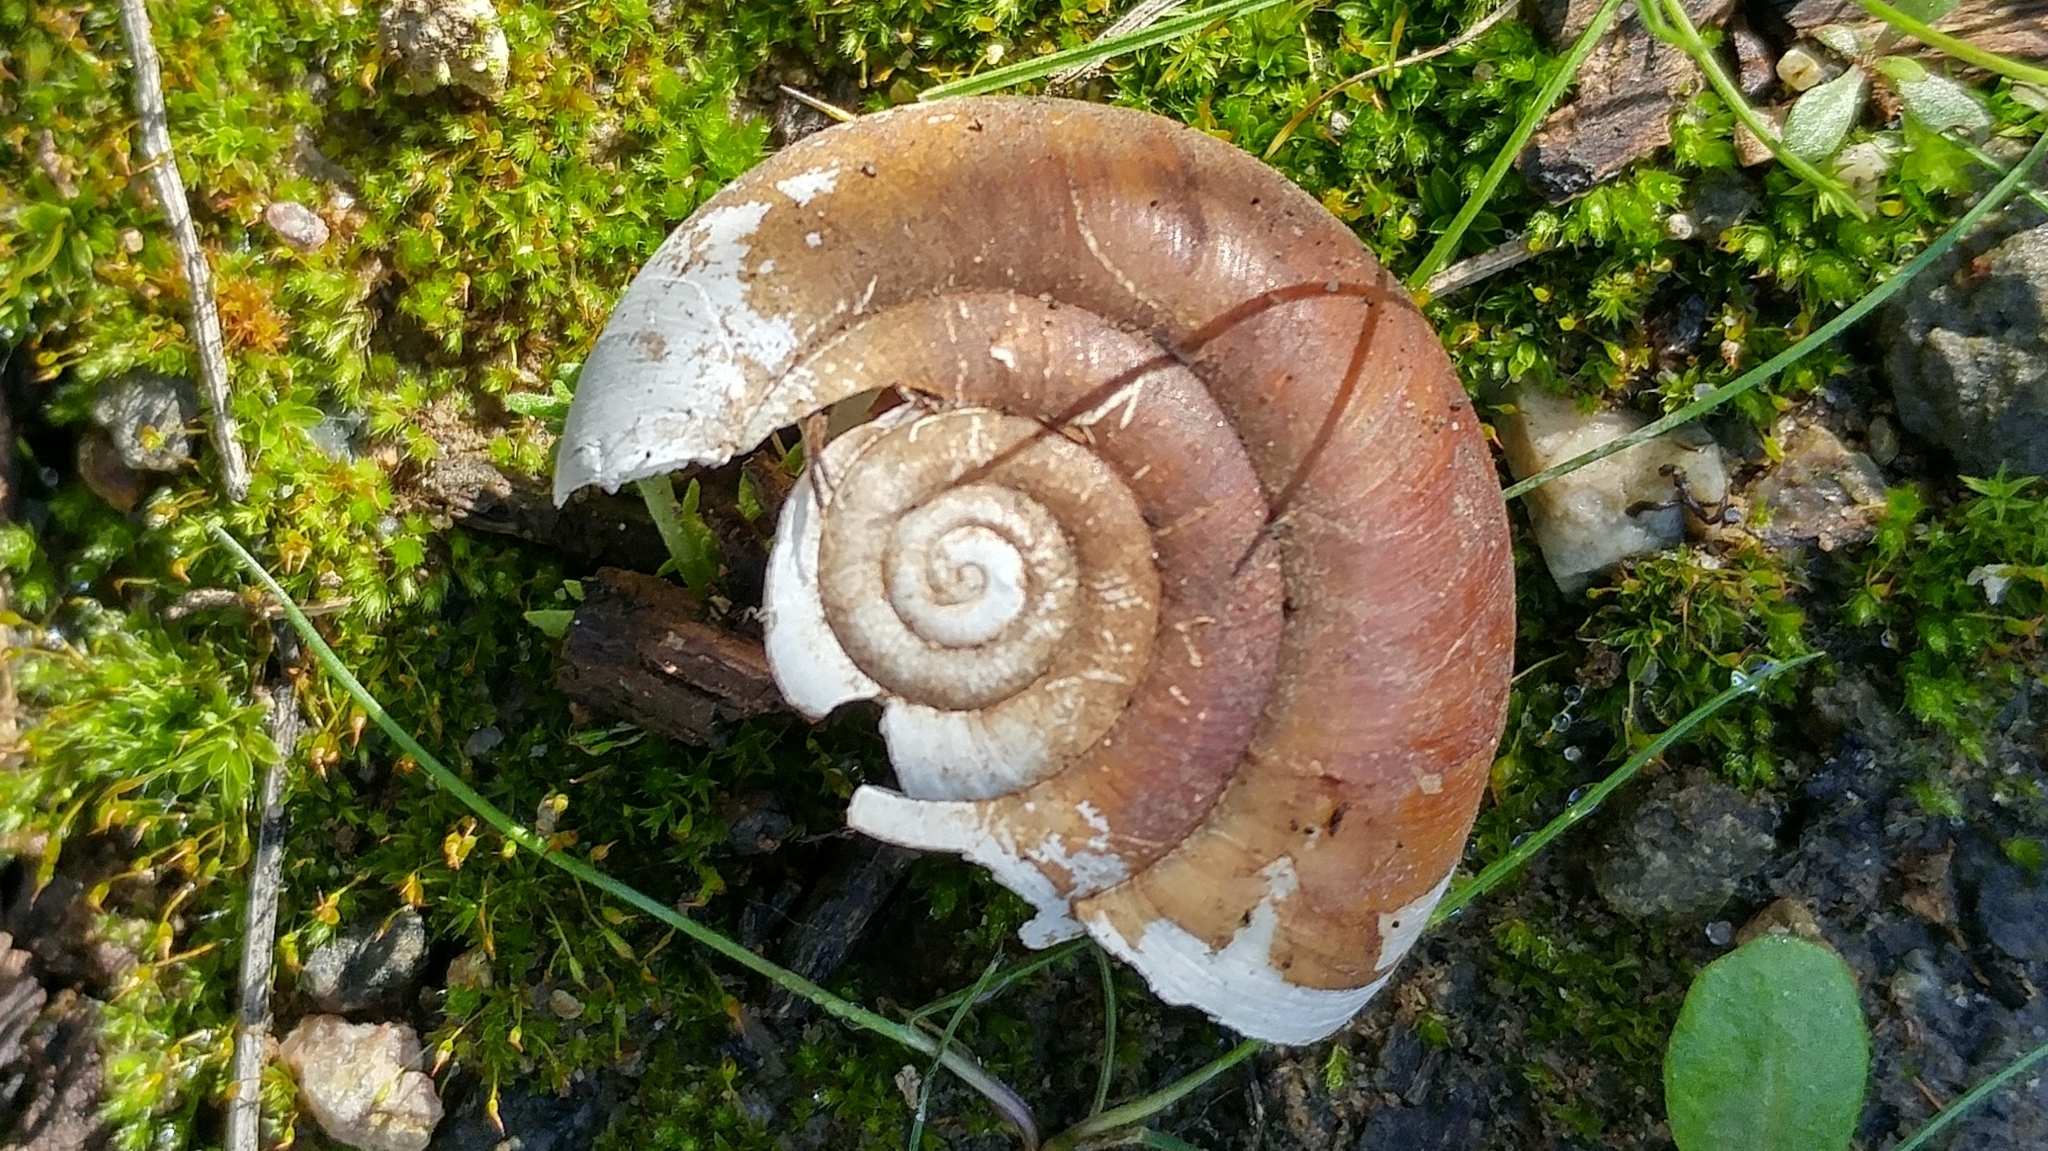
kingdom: Animalia
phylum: Mollusca
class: Gastropoda
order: Stylommatophora
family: Megomphicidae
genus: Glyptostoma
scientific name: Glyptostoma newberryanum
